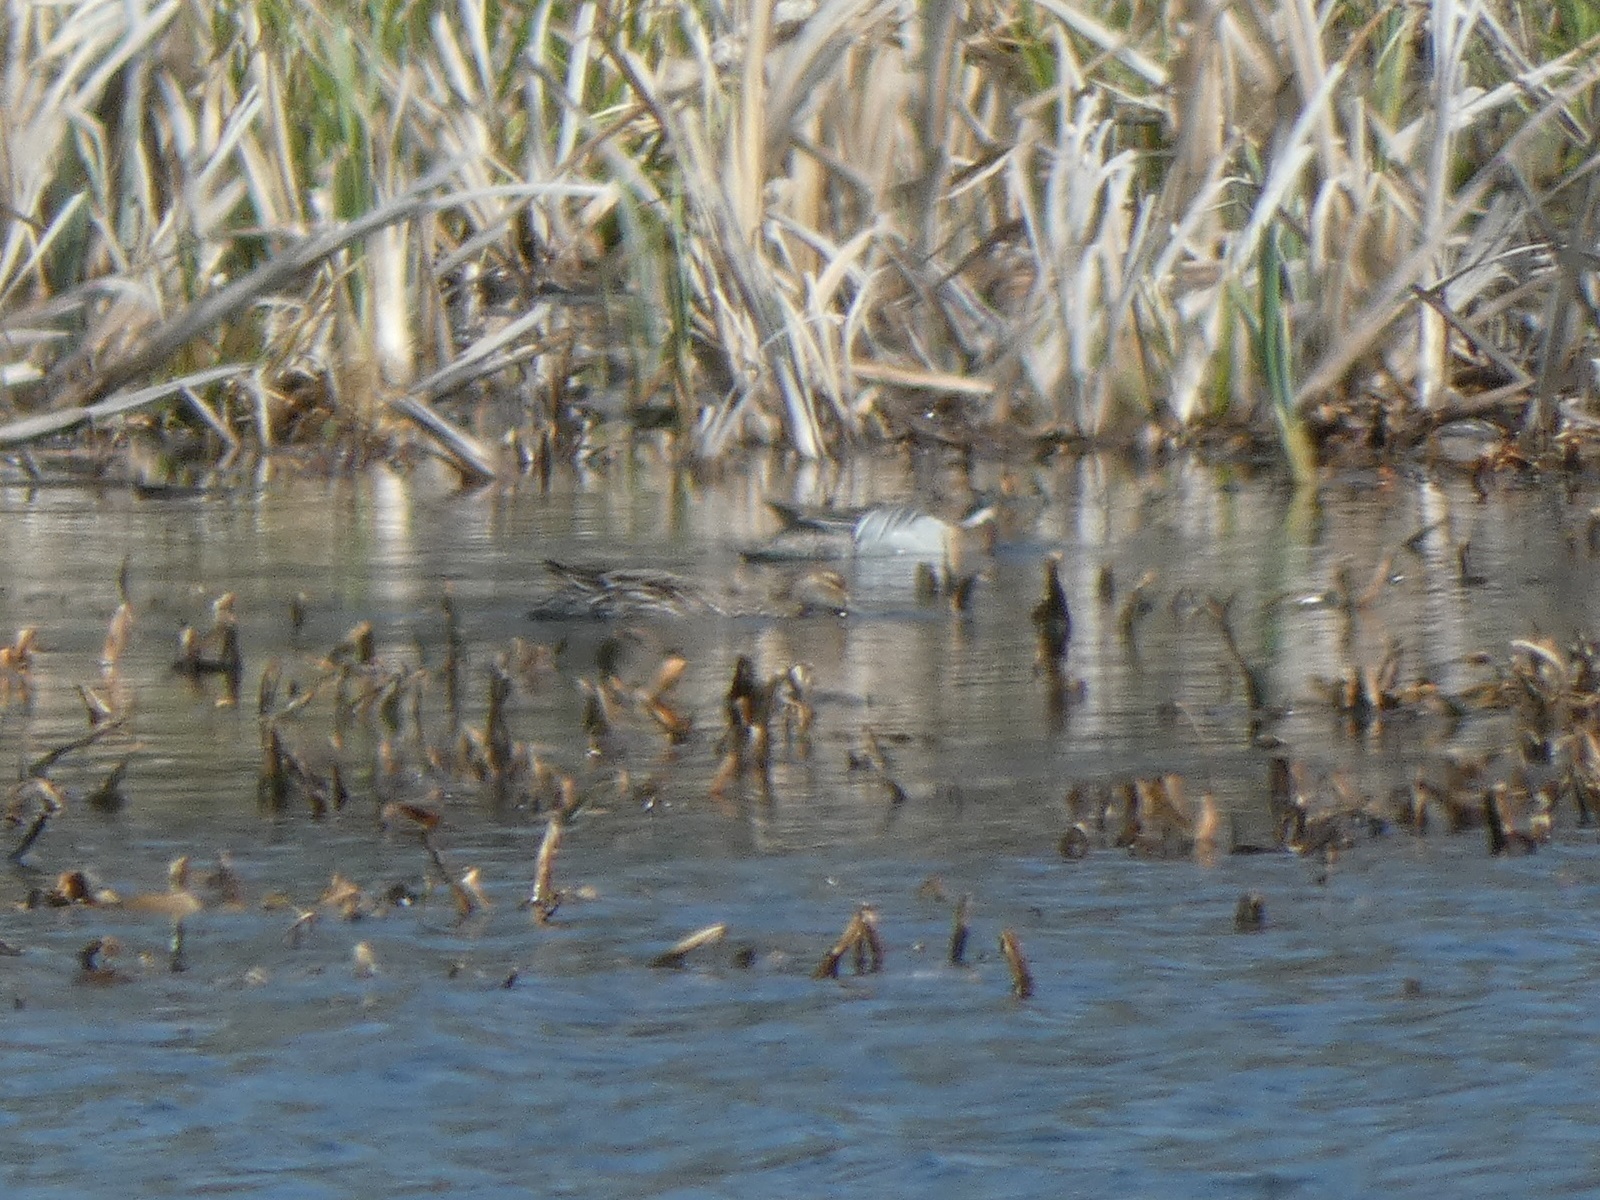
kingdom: Animalia
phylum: Chordata
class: Aves
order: Anseriformes
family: Anatidae
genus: Spatula
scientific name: Spatula querquedula
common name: Garganey
